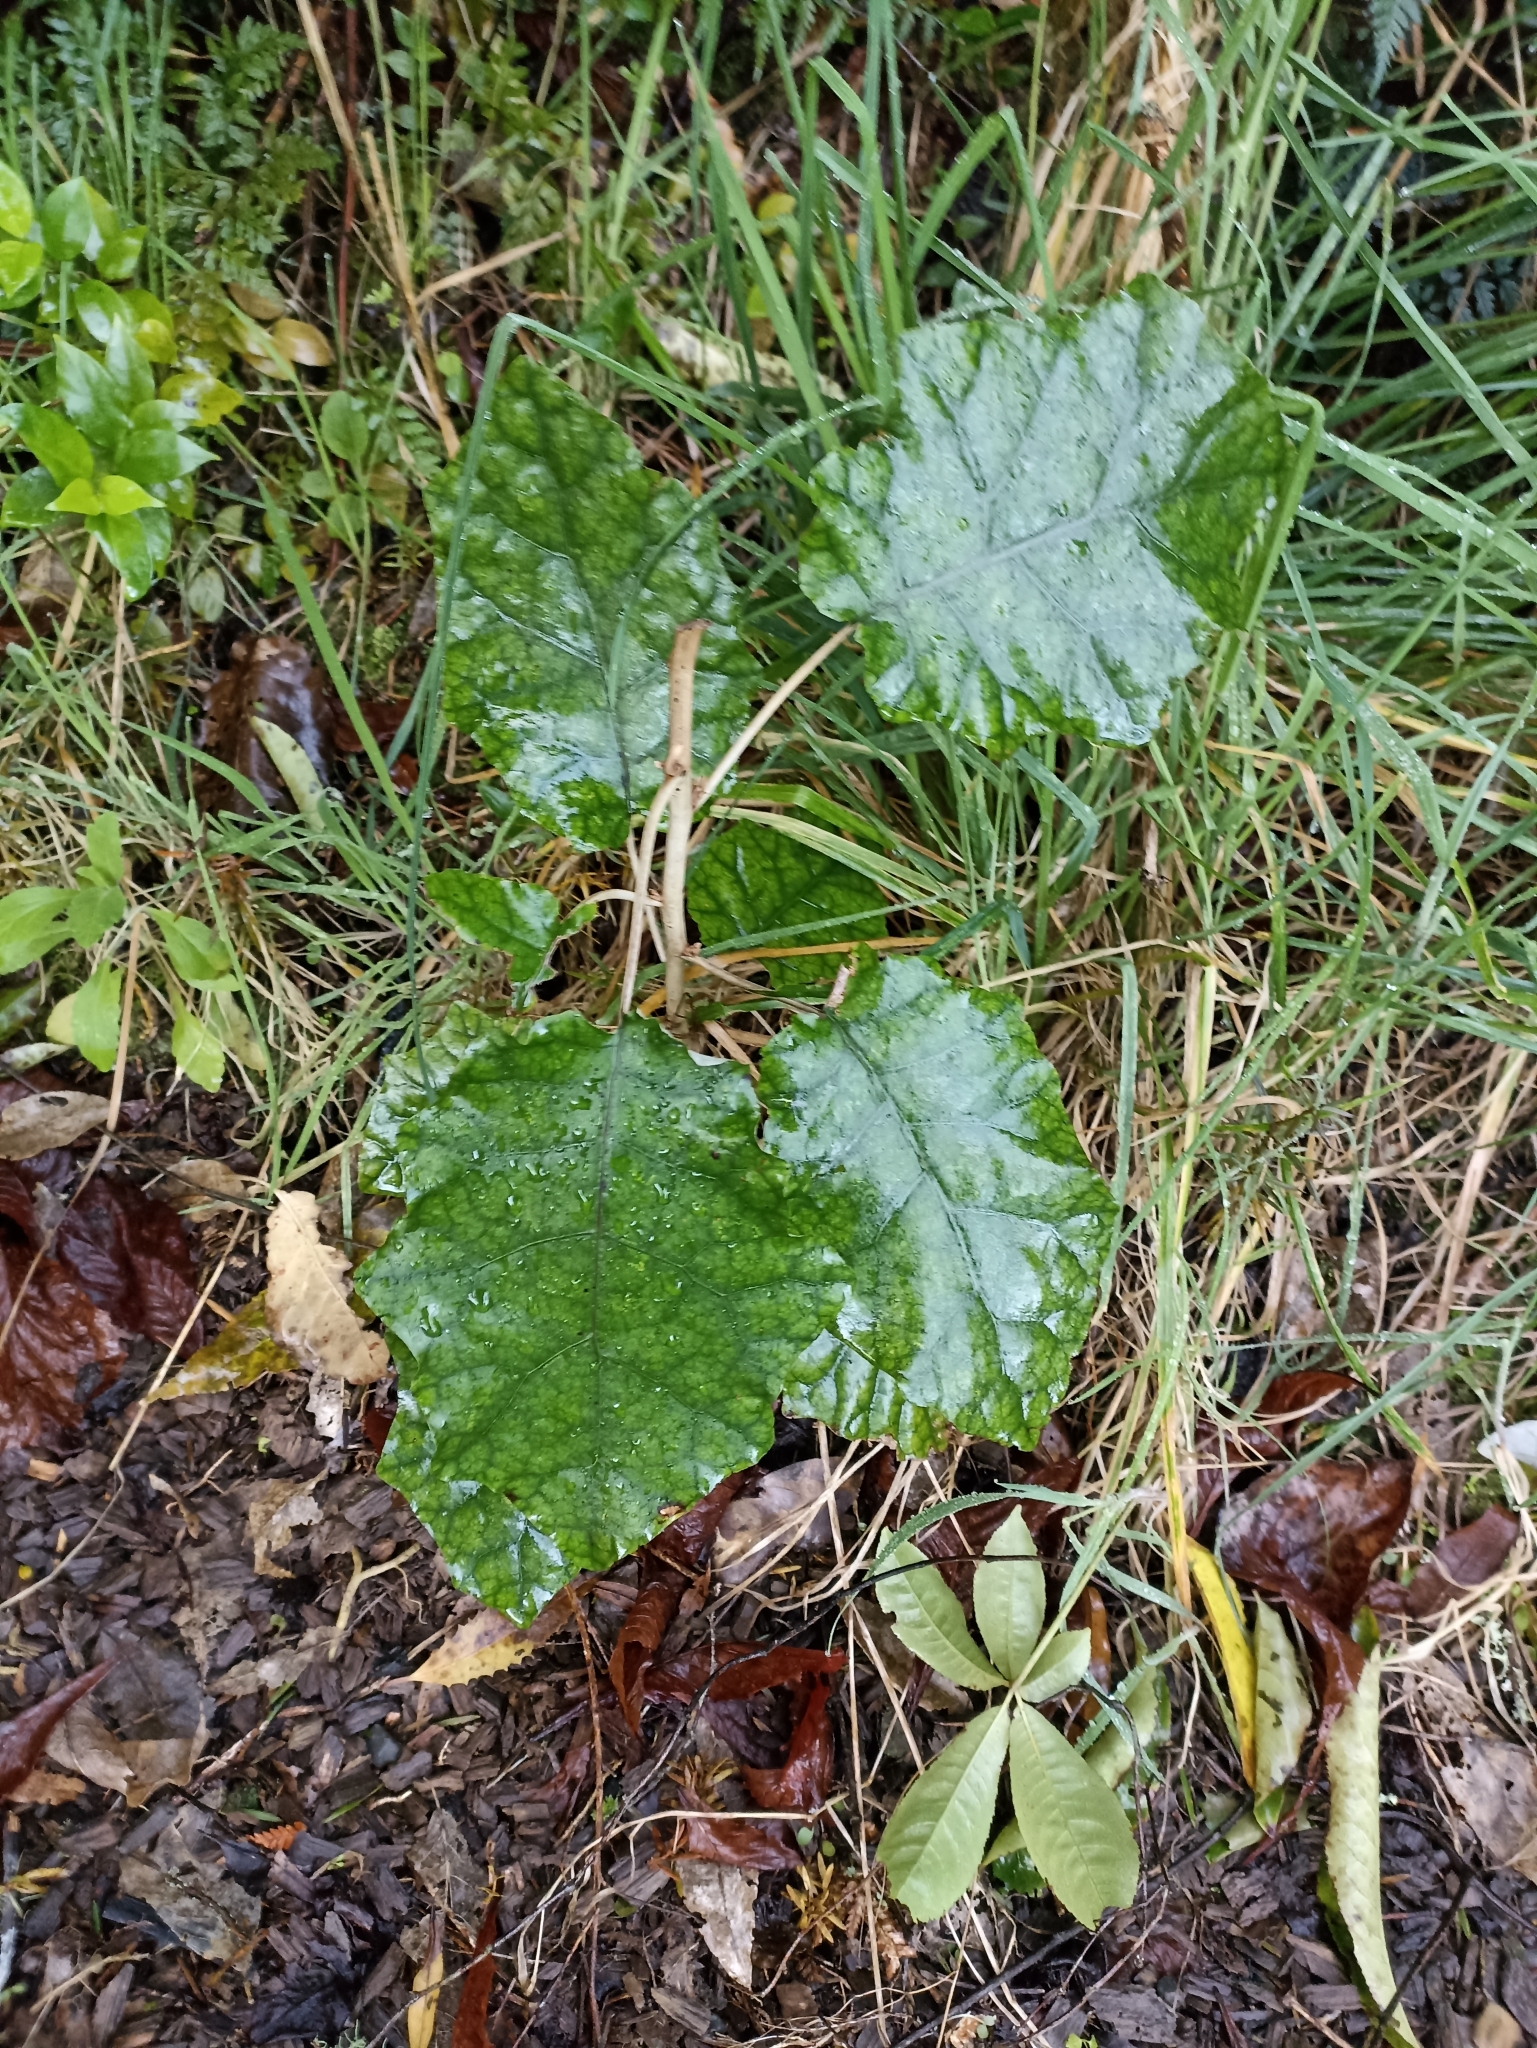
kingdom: Plantae
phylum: Tracheophyta
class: Magnoliopsida
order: Asterales
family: Asteraceae
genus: Brachyglottis
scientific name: Brachyglottis repanda
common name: Hedge ragwort
